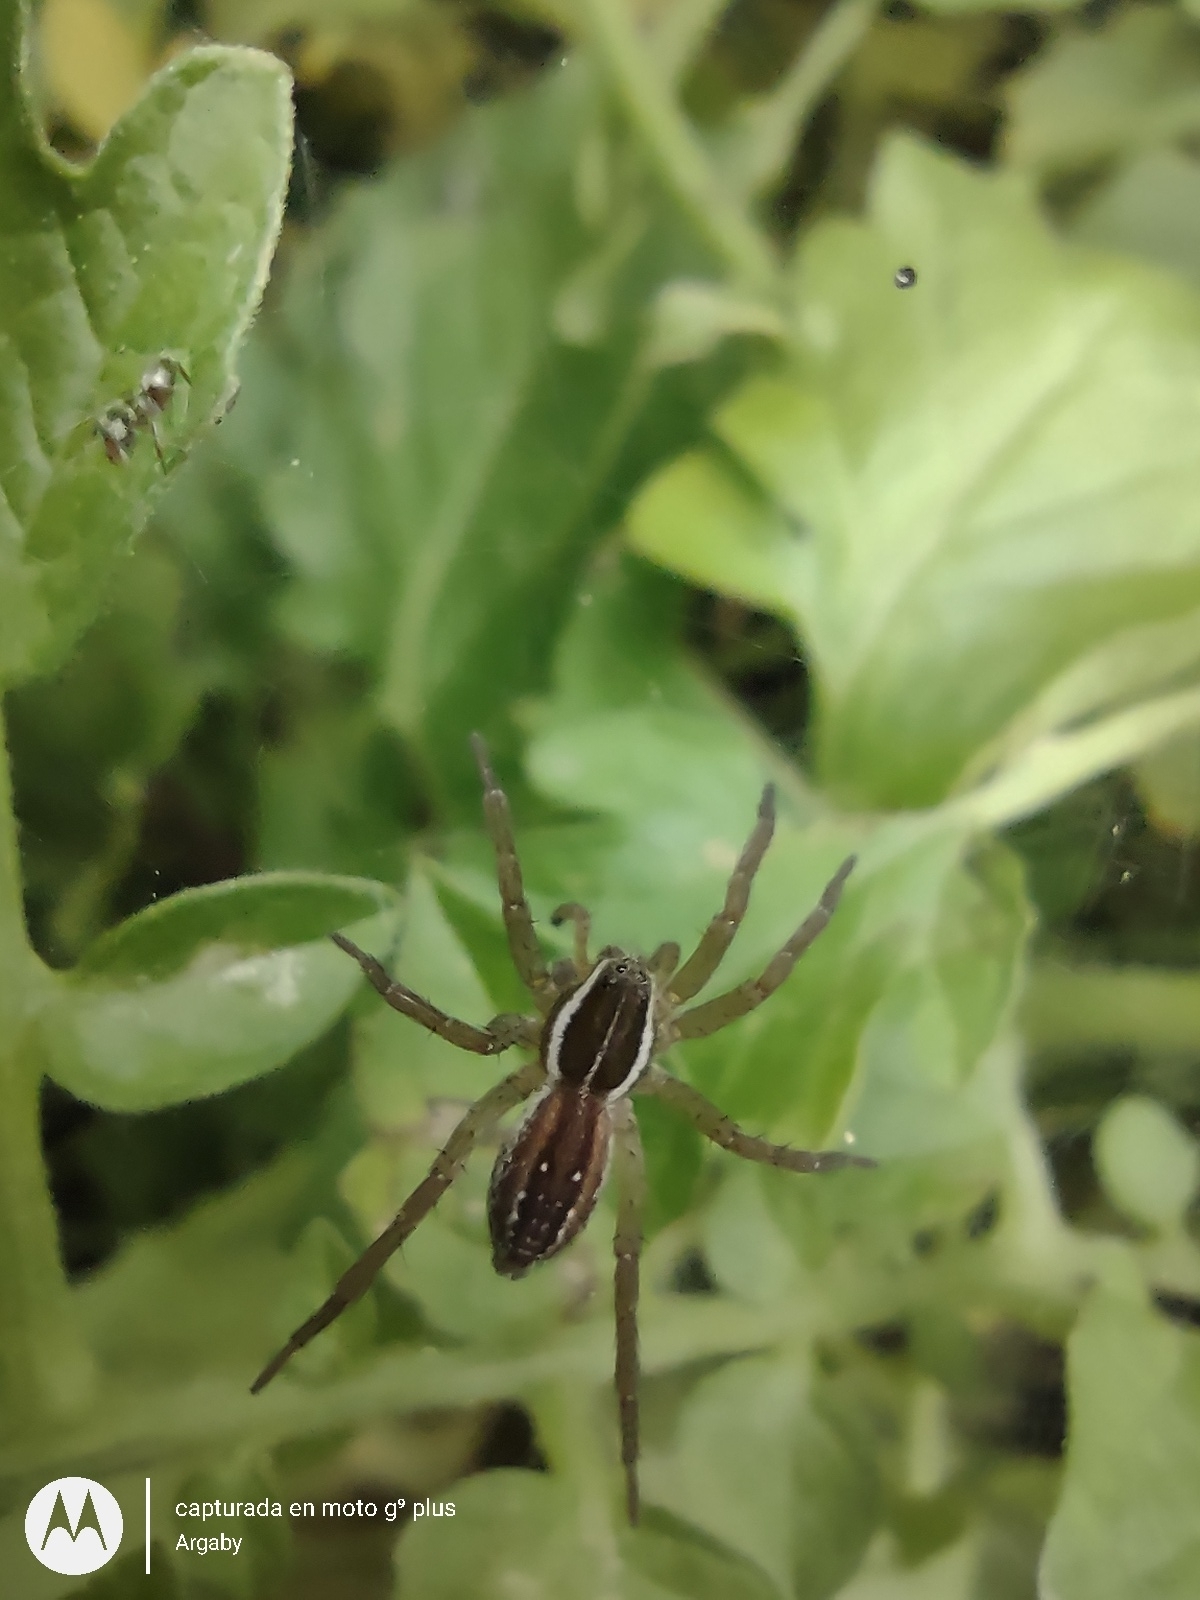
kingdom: Animalia
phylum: Arthropoda
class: Arachnida
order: Araneae
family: Lycosidae
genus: Diapontia
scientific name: Diapontia uruguayensis
